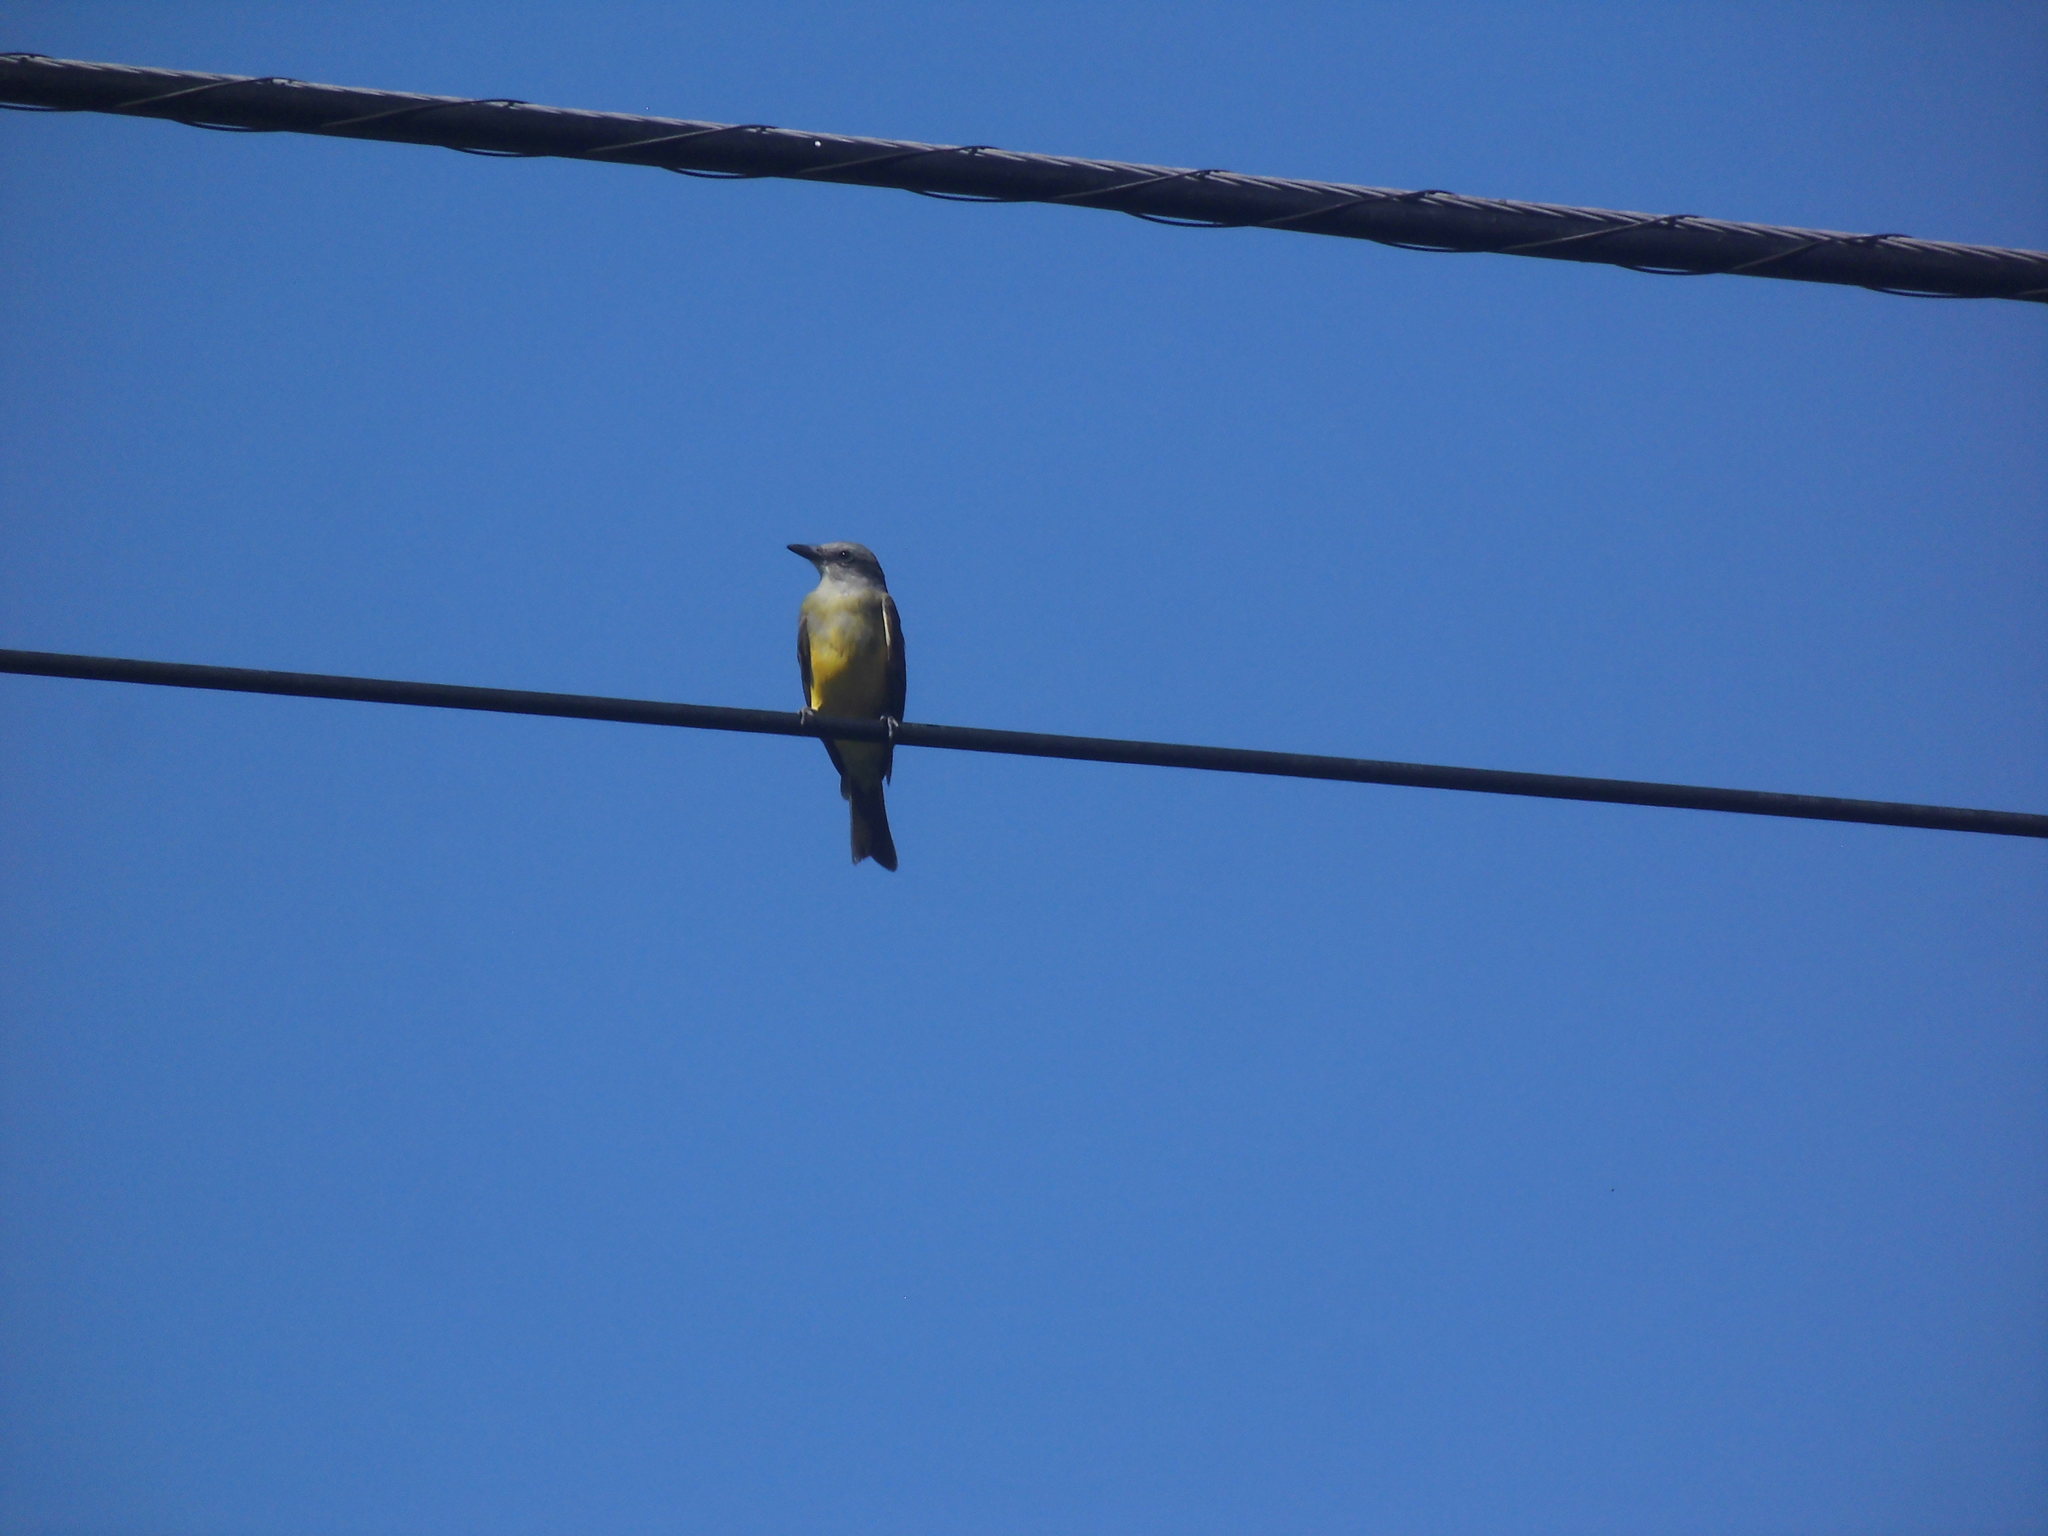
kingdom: Animalia
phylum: Chordata
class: Aves
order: Passeriformes
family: Tyrannidae
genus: Tyrannus
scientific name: Tyrannus melancholicus
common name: Tropical kingbird
